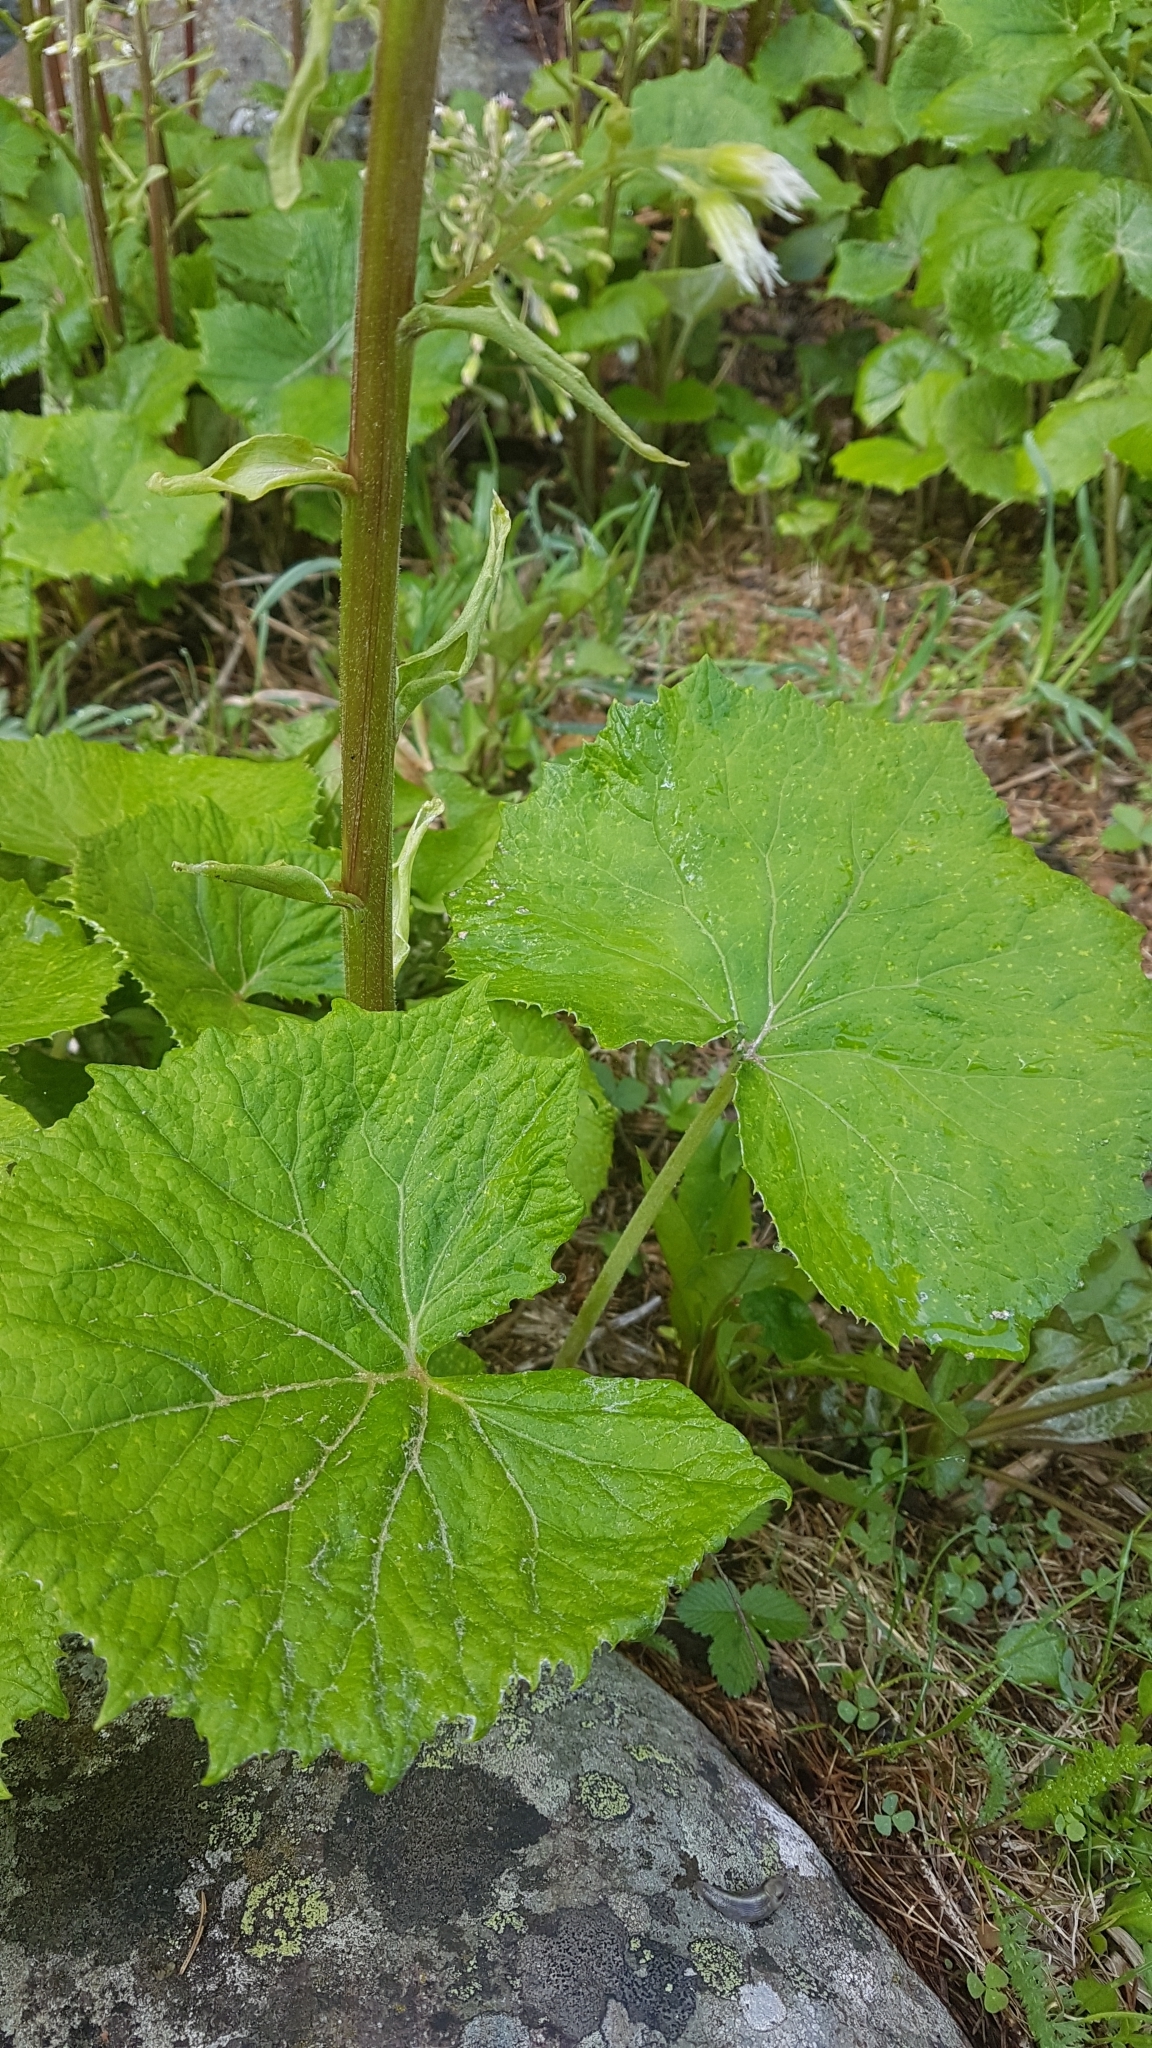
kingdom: Plantae
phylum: Tracheophyta
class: Magnoliopsida
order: Asterales
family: Asteraceae
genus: Petasites
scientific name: Petasites albus
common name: White butterbur
